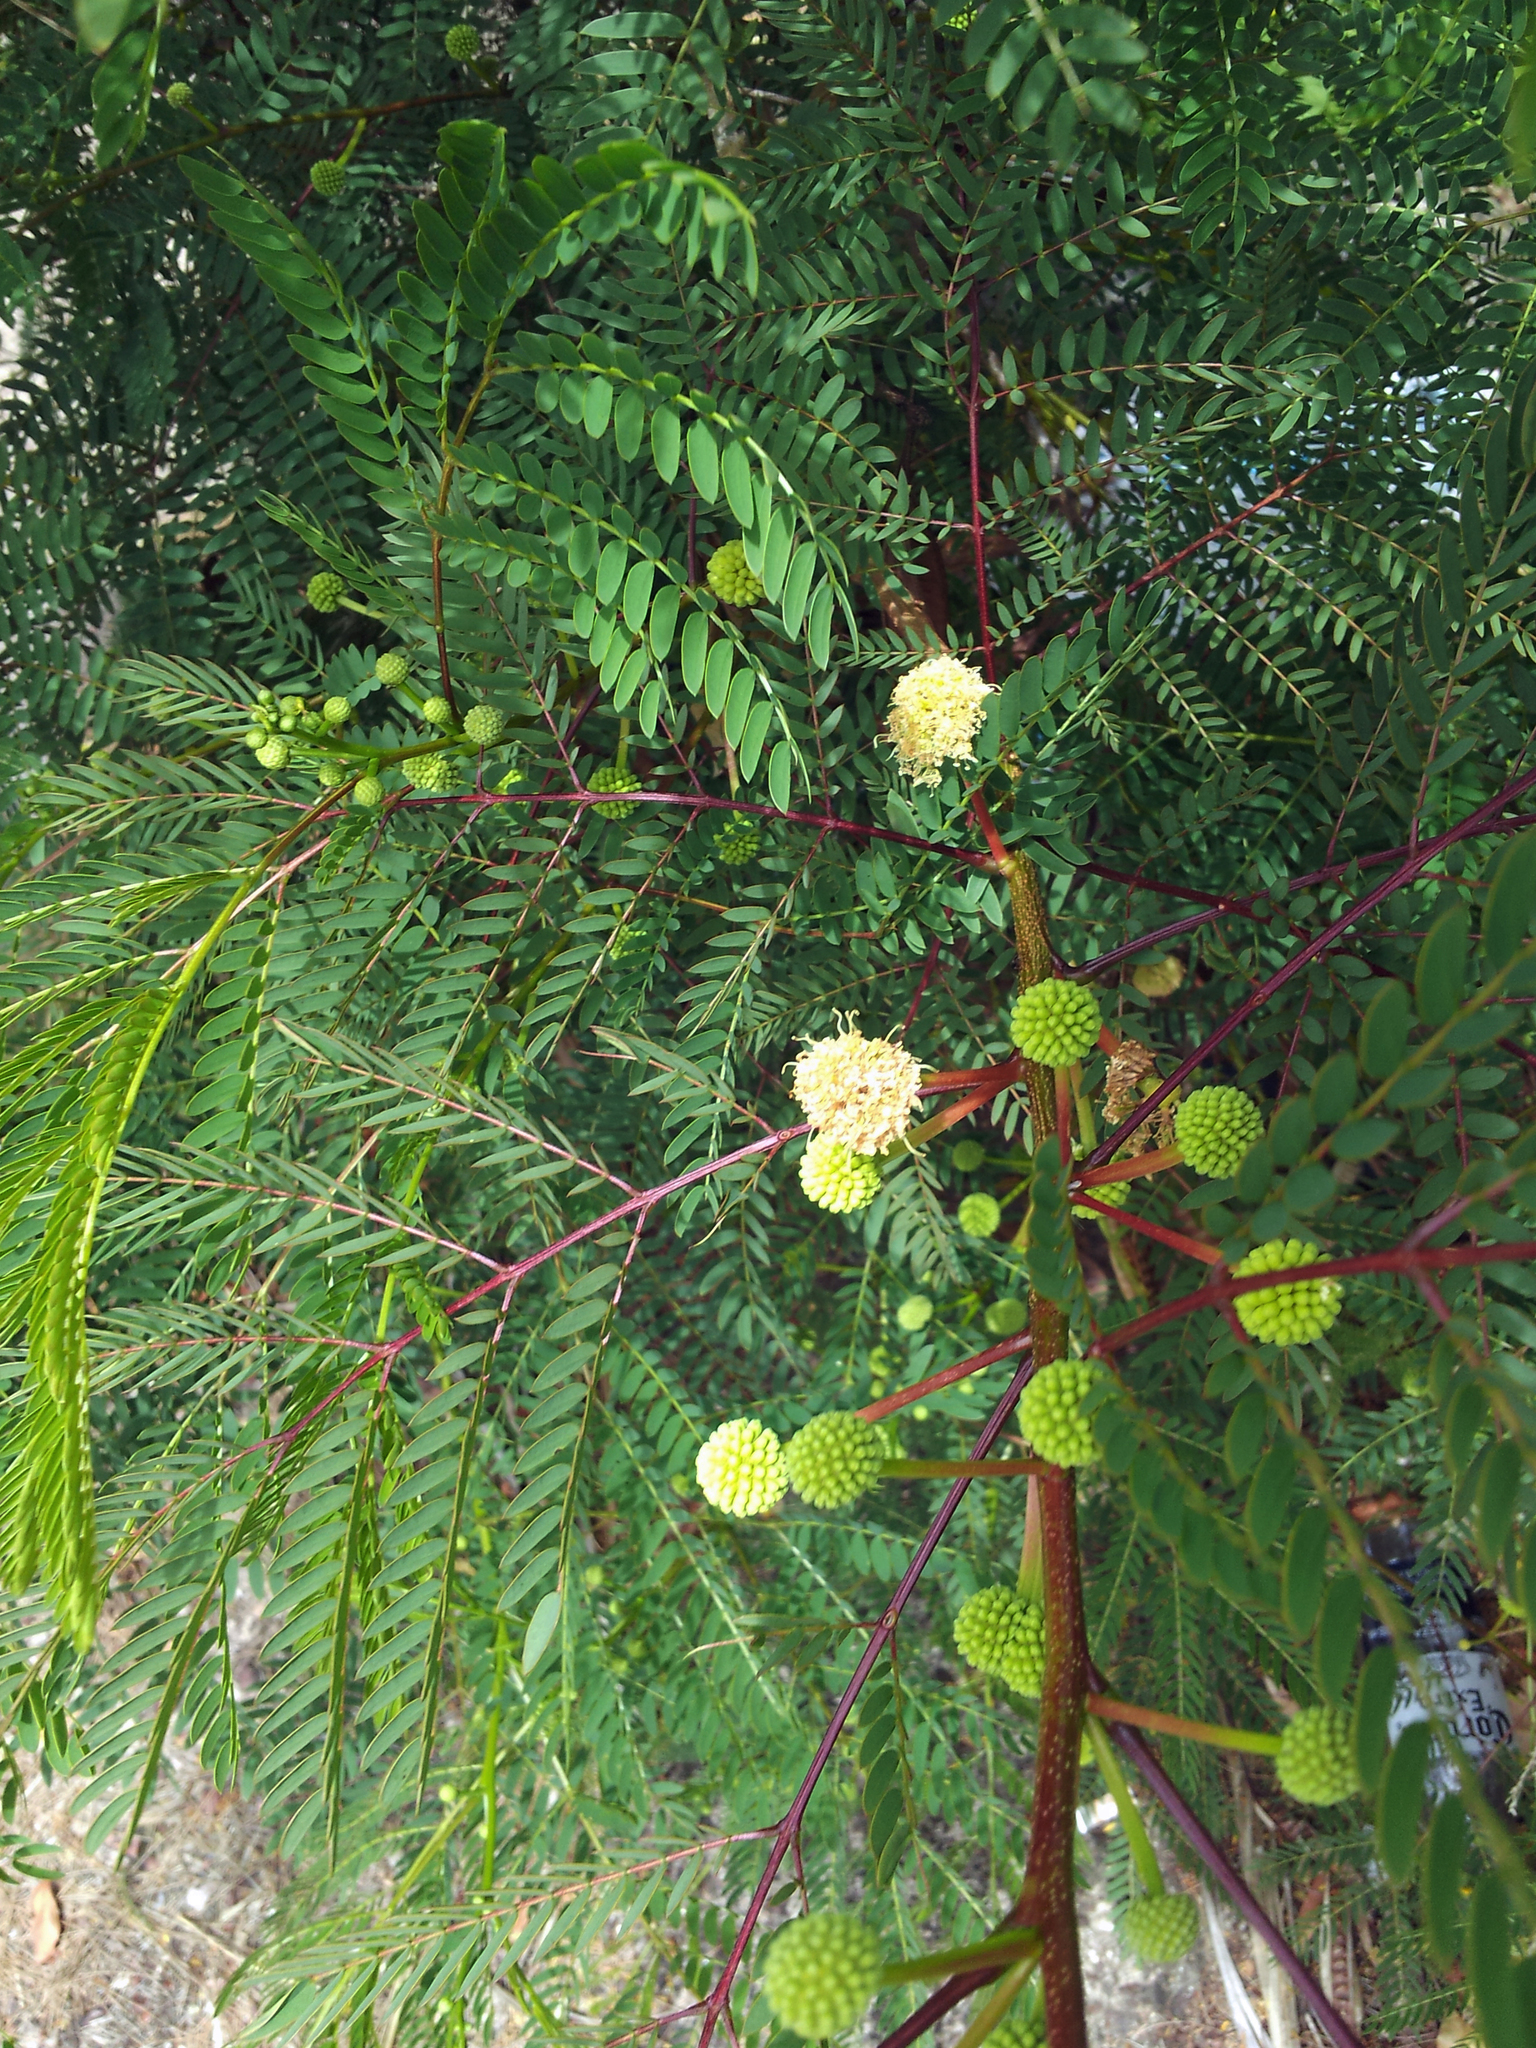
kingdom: Plantae
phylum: Tracheophyta
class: Magnoliopsida
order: Fabales
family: Fabaceae
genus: Leucaena
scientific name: Leucaena leucocephala
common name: White leadtree
